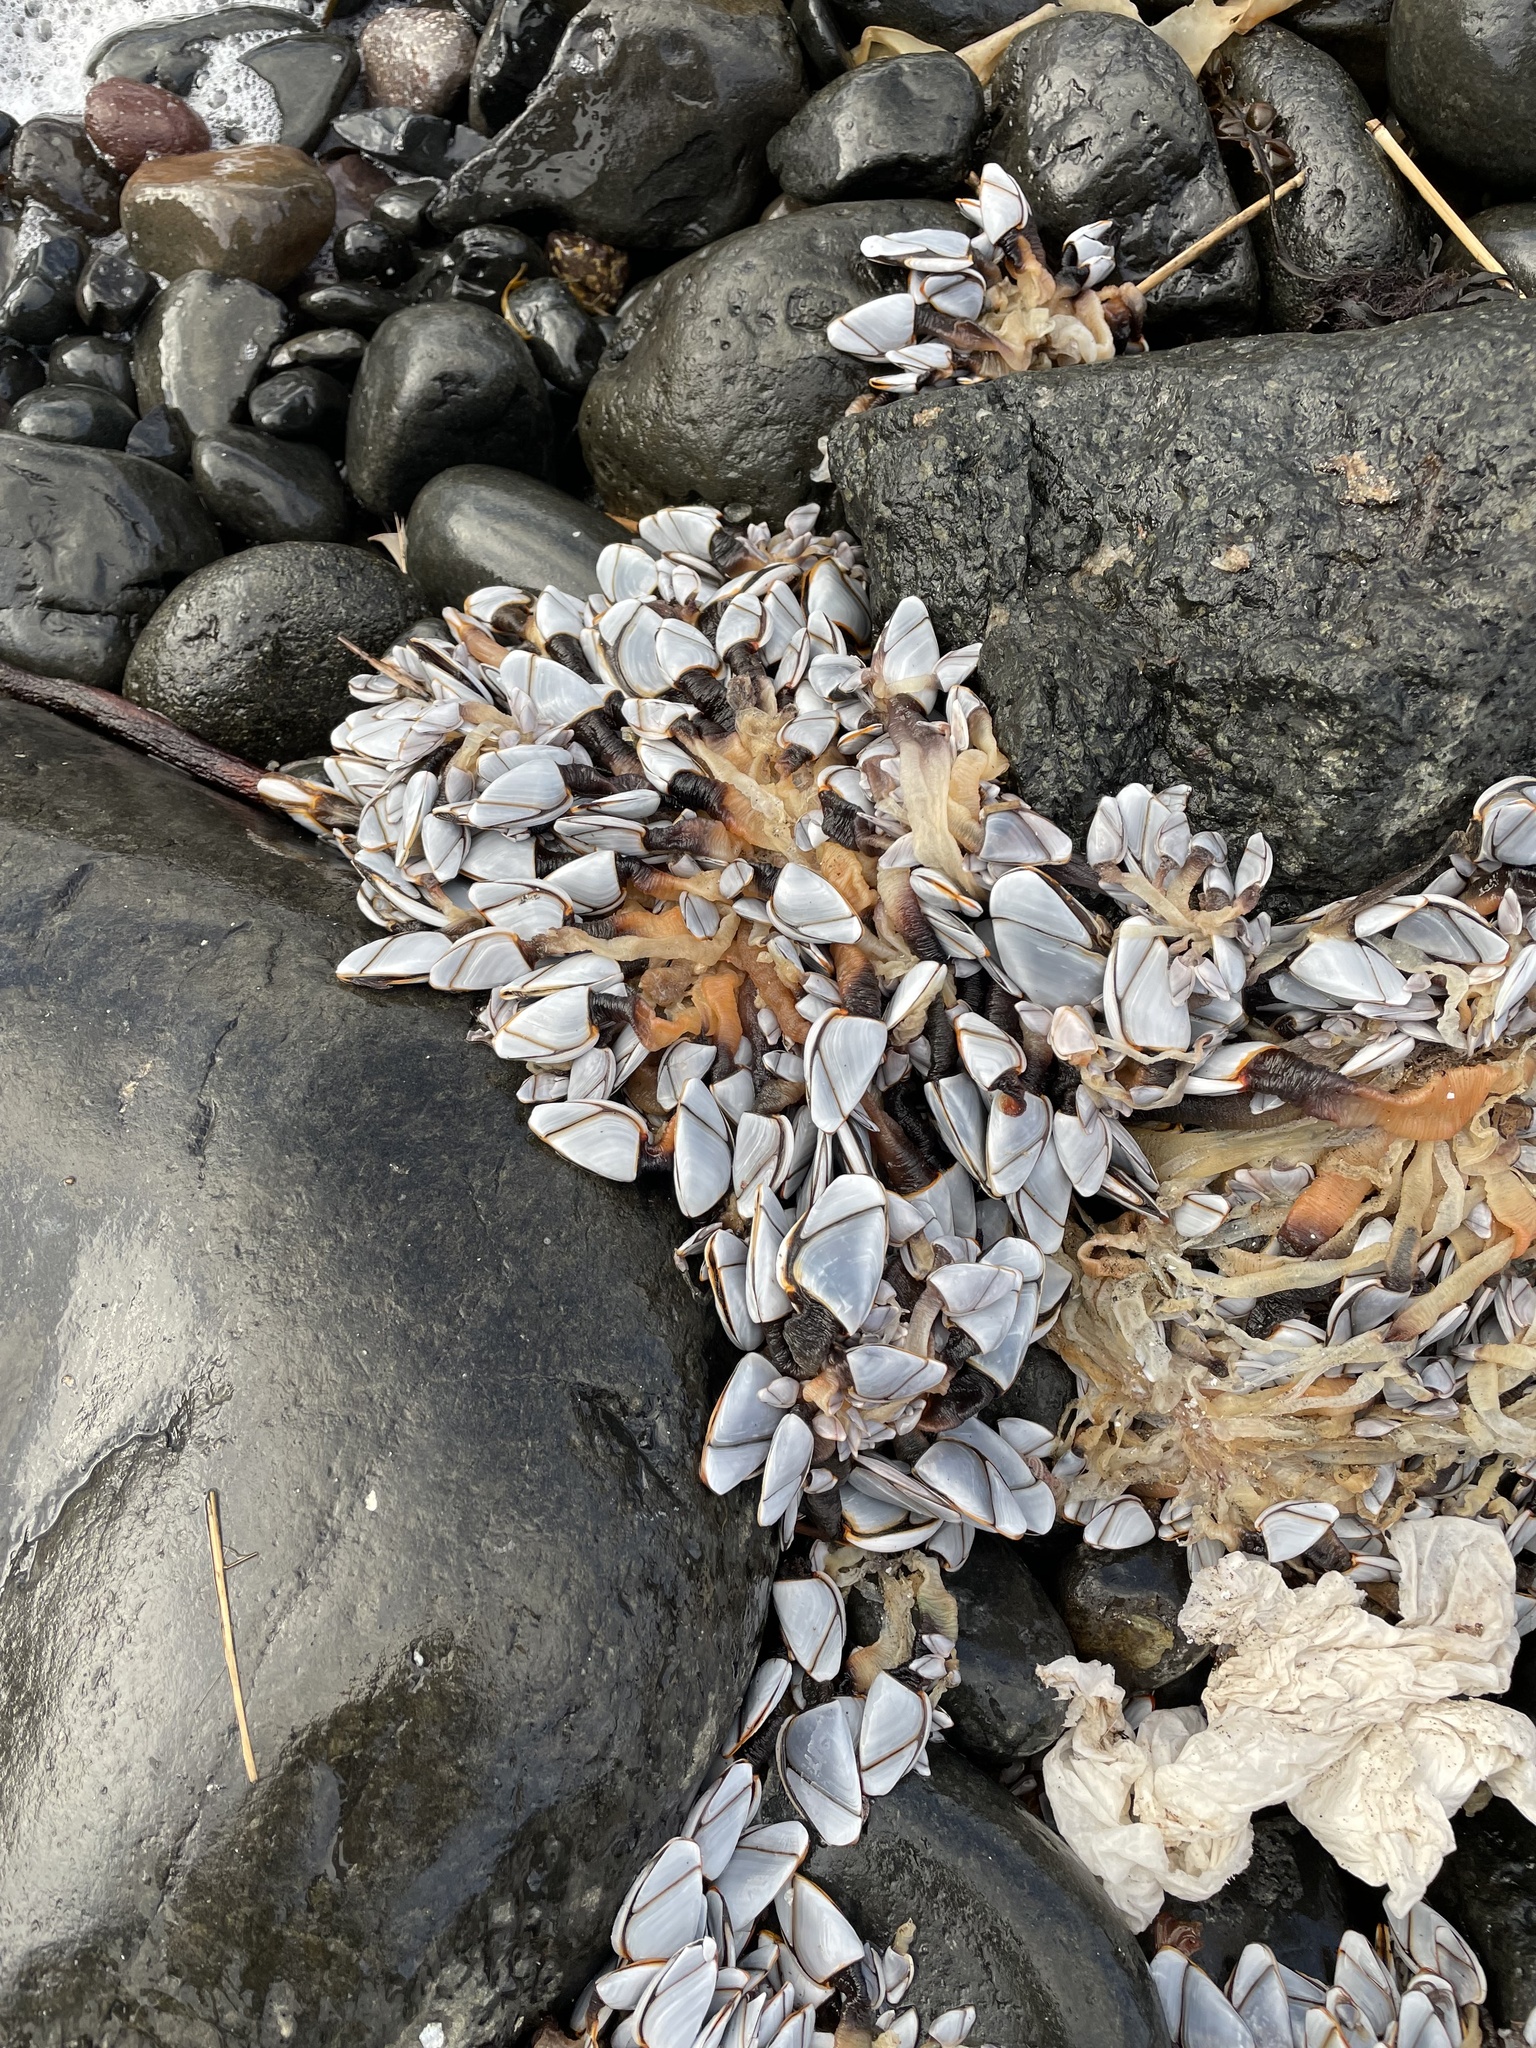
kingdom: Animalia
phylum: Arthropoda
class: Maxillopoda
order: Pedunculata
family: Lepadidae
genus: Lepas
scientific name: Lepas anatifera
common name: Common goose barnacle
